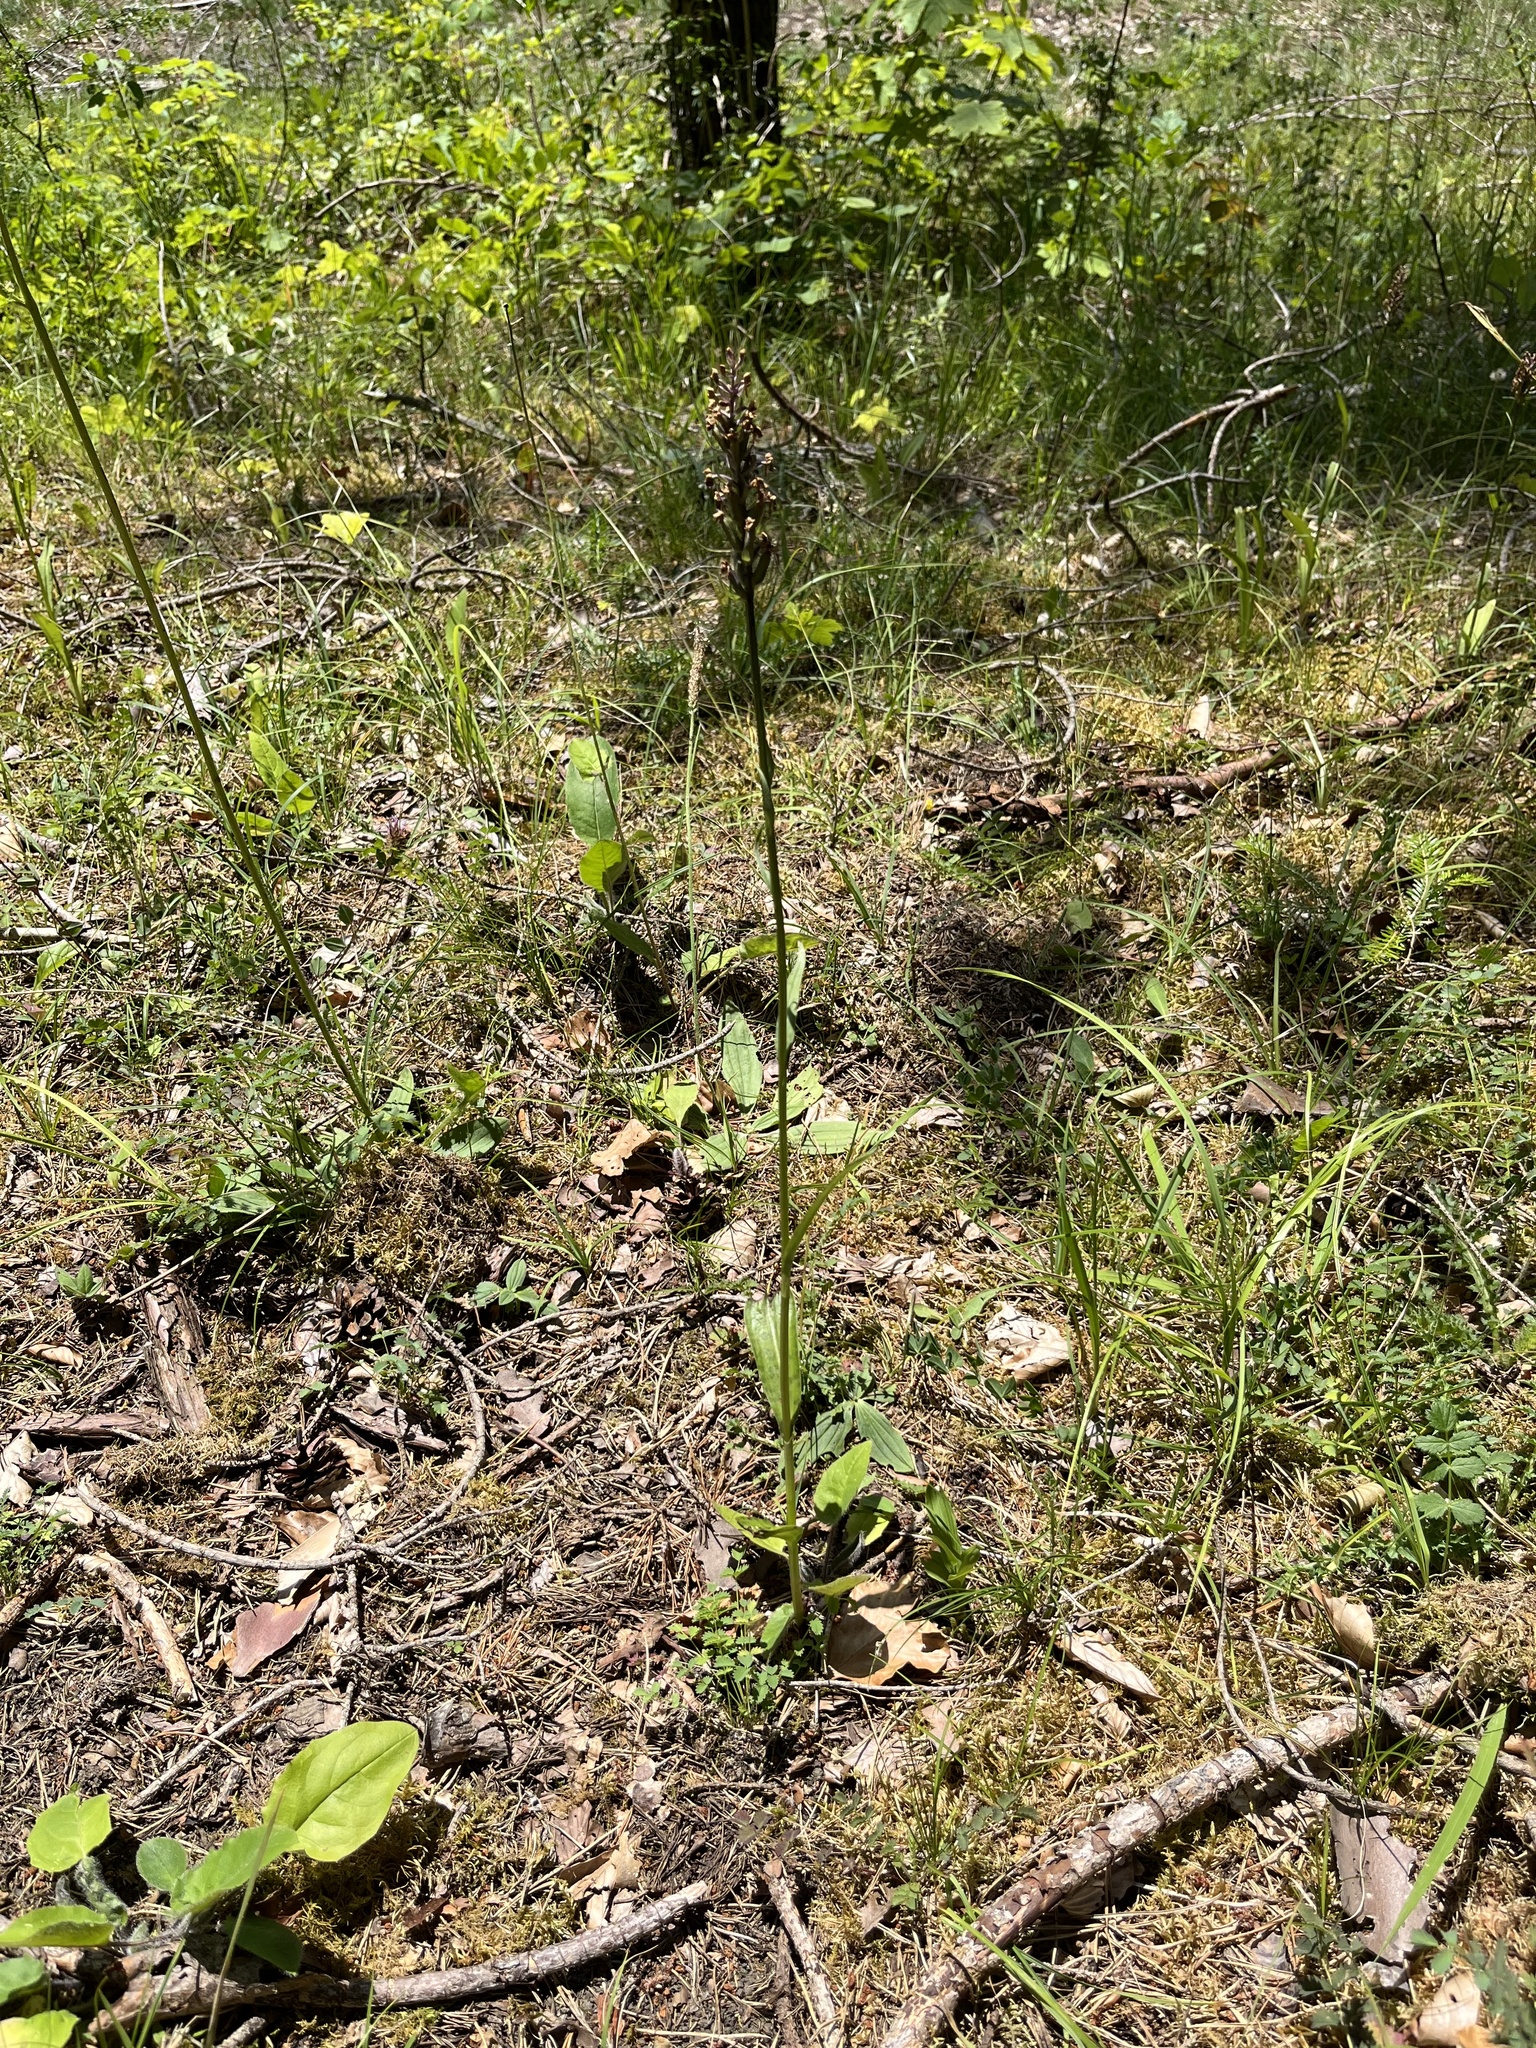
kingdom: Plantae
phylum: Tracheophyta
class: Liliopsida
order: Asparagales
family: Orchidaceae
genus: Dactylorhiza
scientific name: Dactylorhiza maculata
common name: Heath spotted-orchid
